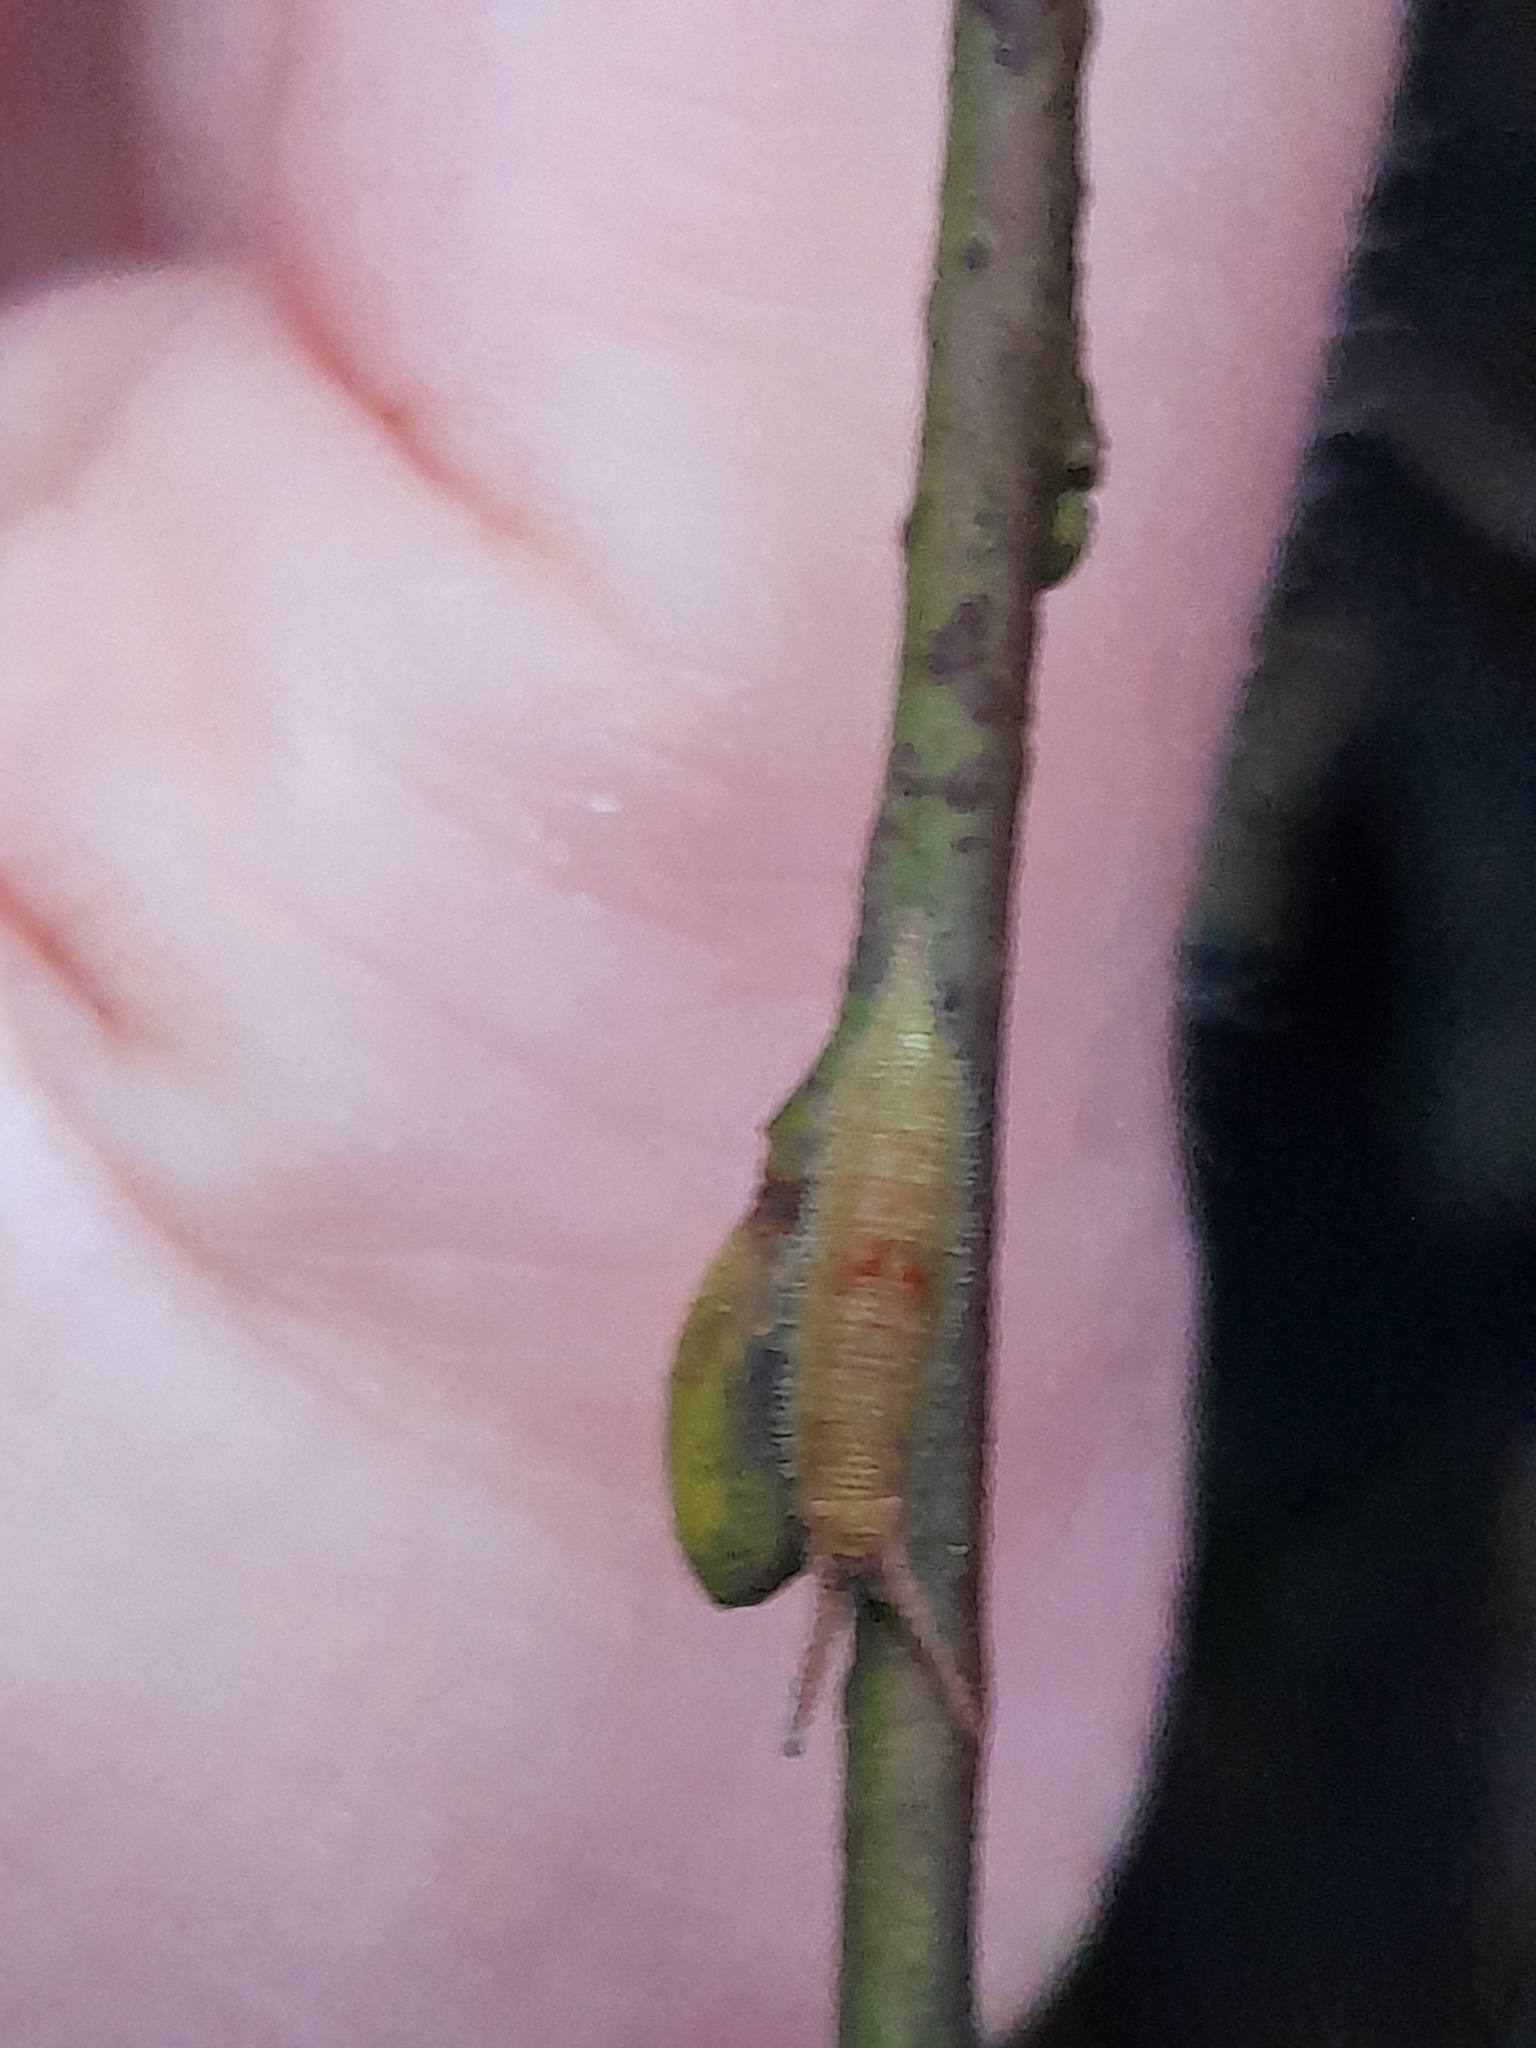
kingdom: Animalia
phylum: Arthropoda
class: Insecta
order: Lepidoptera
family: Nymphalidae
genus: Apatura
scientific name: Apatura iris
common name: Purple emperor
